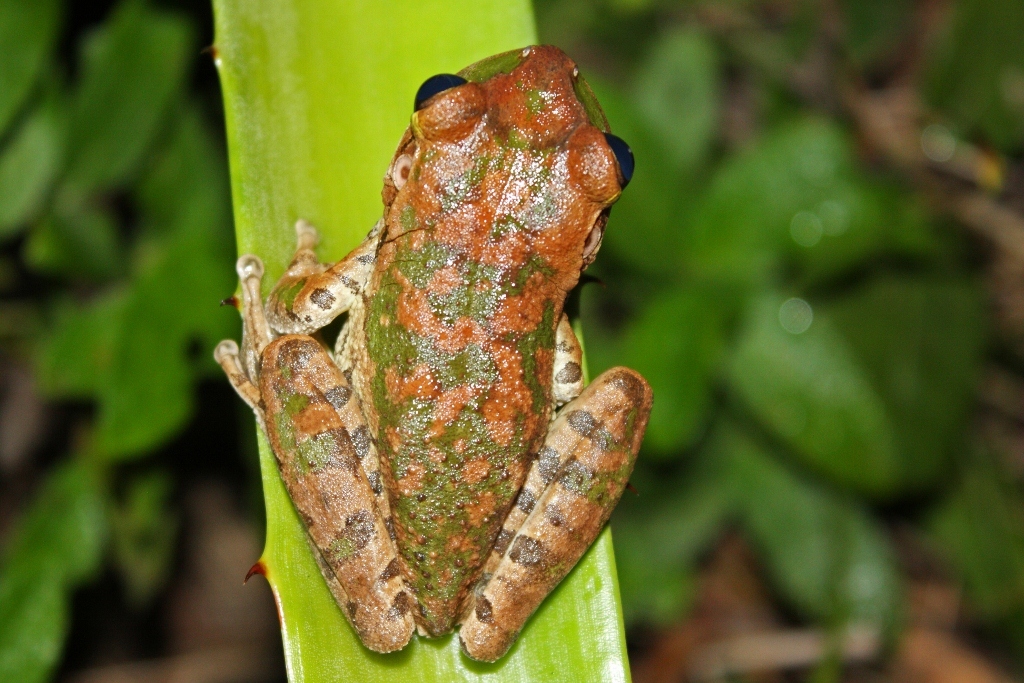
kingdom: Animalia
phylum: Chordata
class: Amphibia
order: Anura
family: Hylidae
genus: Osteopilus
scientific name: Osteopilus septentrionalis
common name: Cuban treefrog
